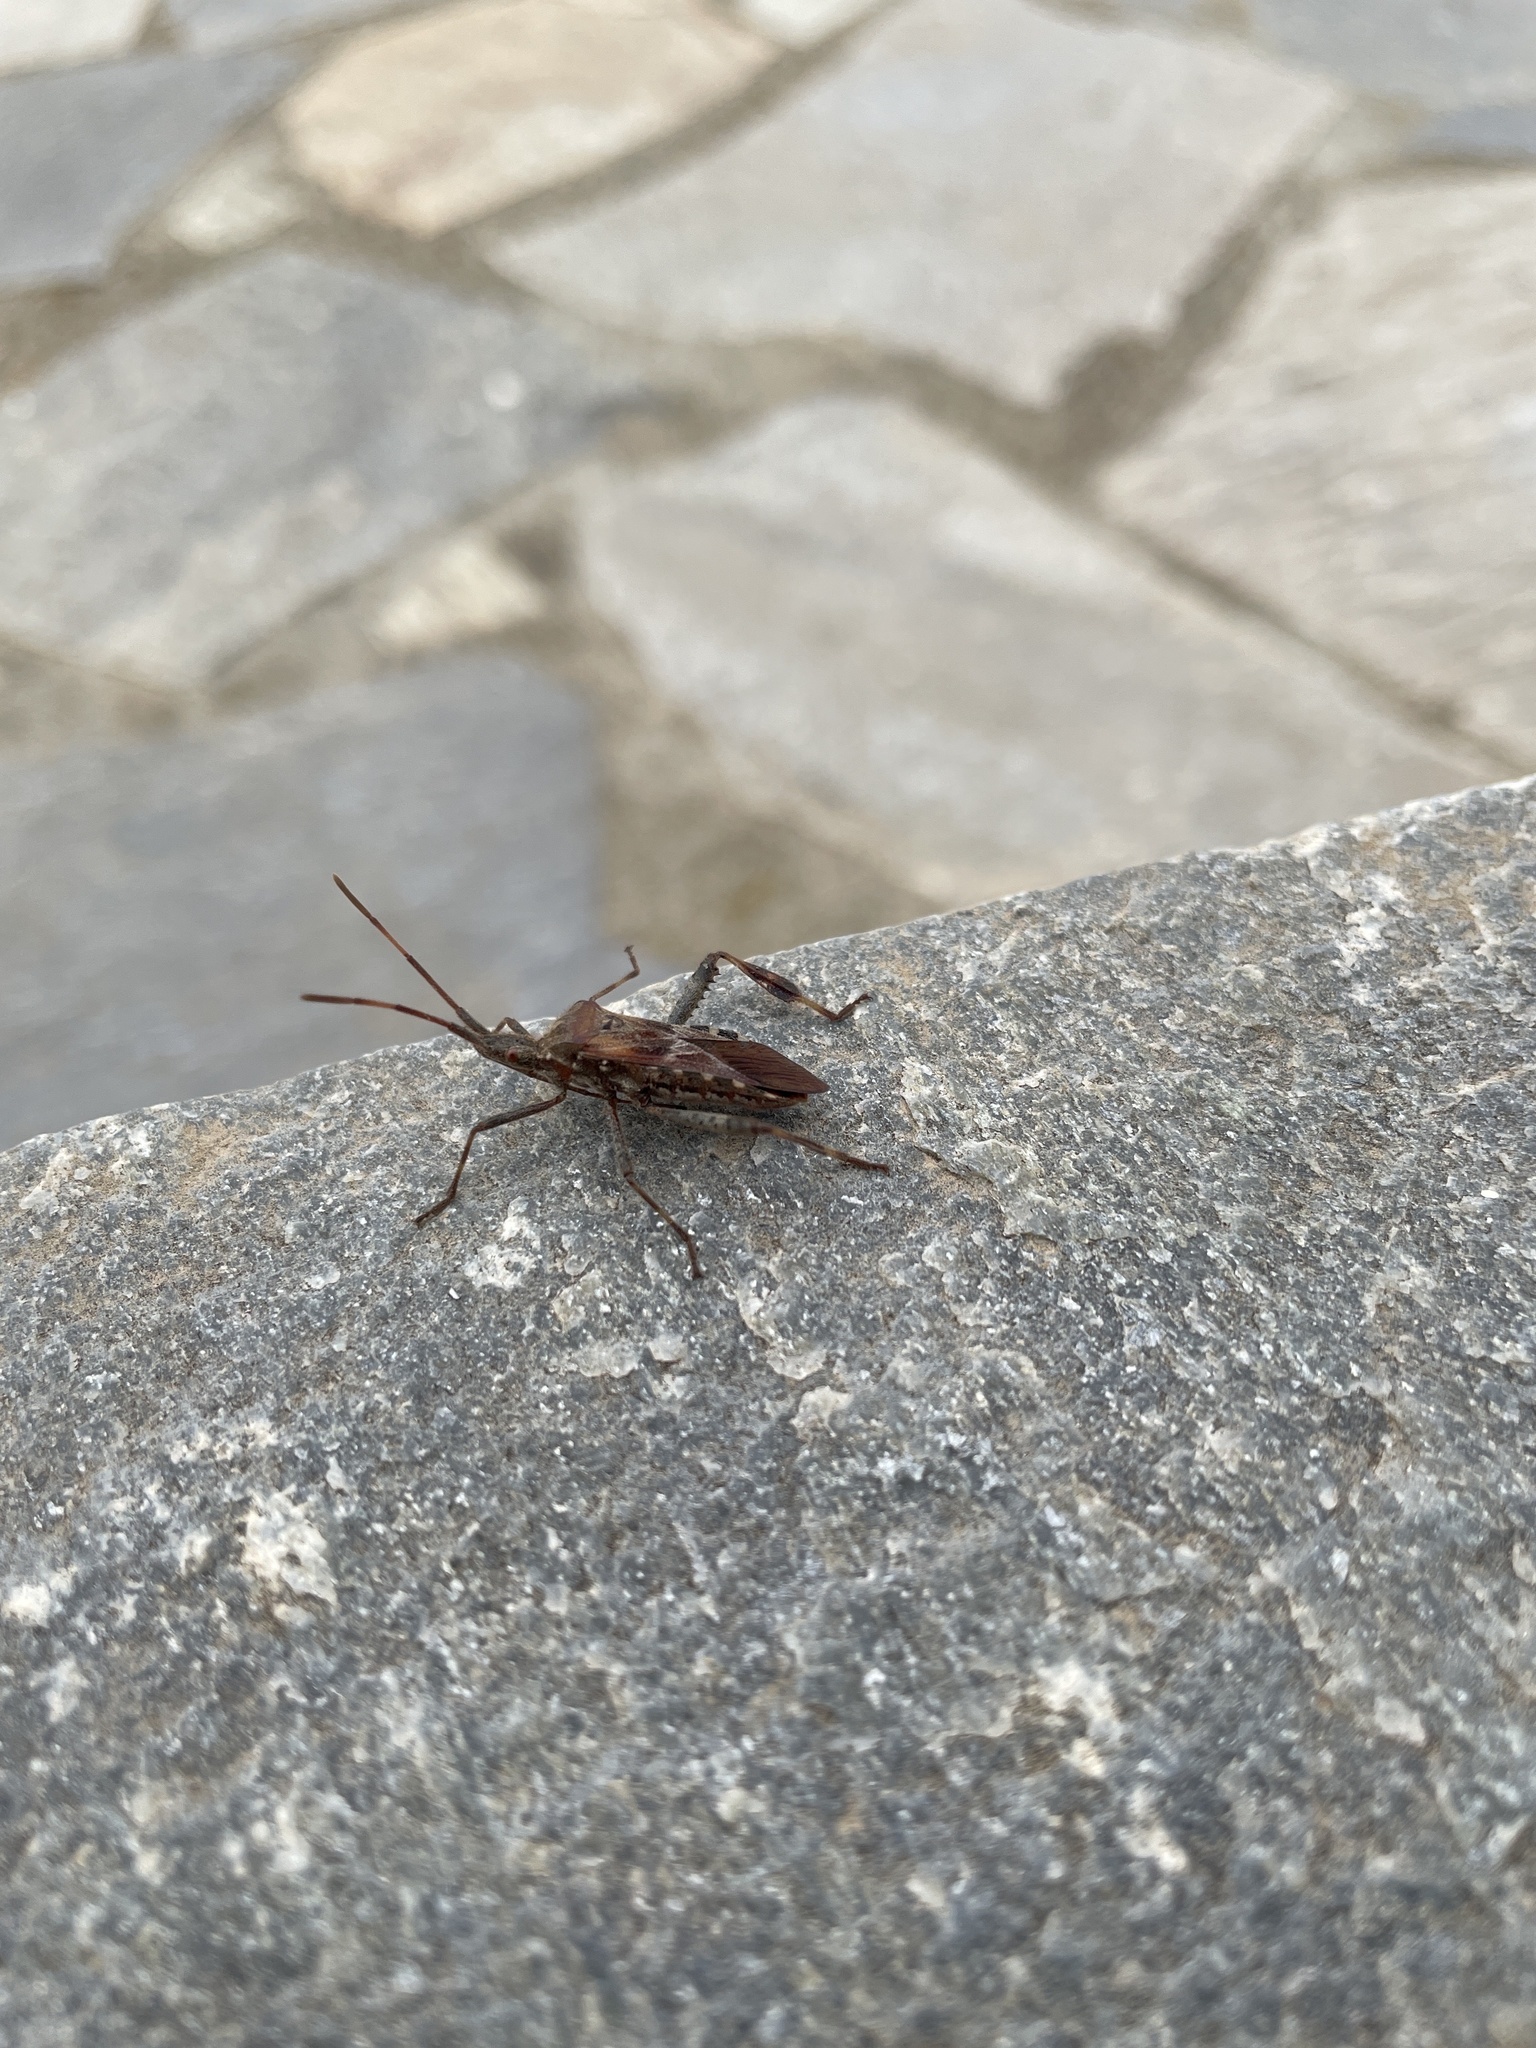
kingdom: Animalia
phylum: Arthropoda
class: Insecta
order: Hemiptera
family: Coreidae
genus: Leptoglossus
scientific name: Leptoglossus occidentalis
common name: Western conifer-seed bug
